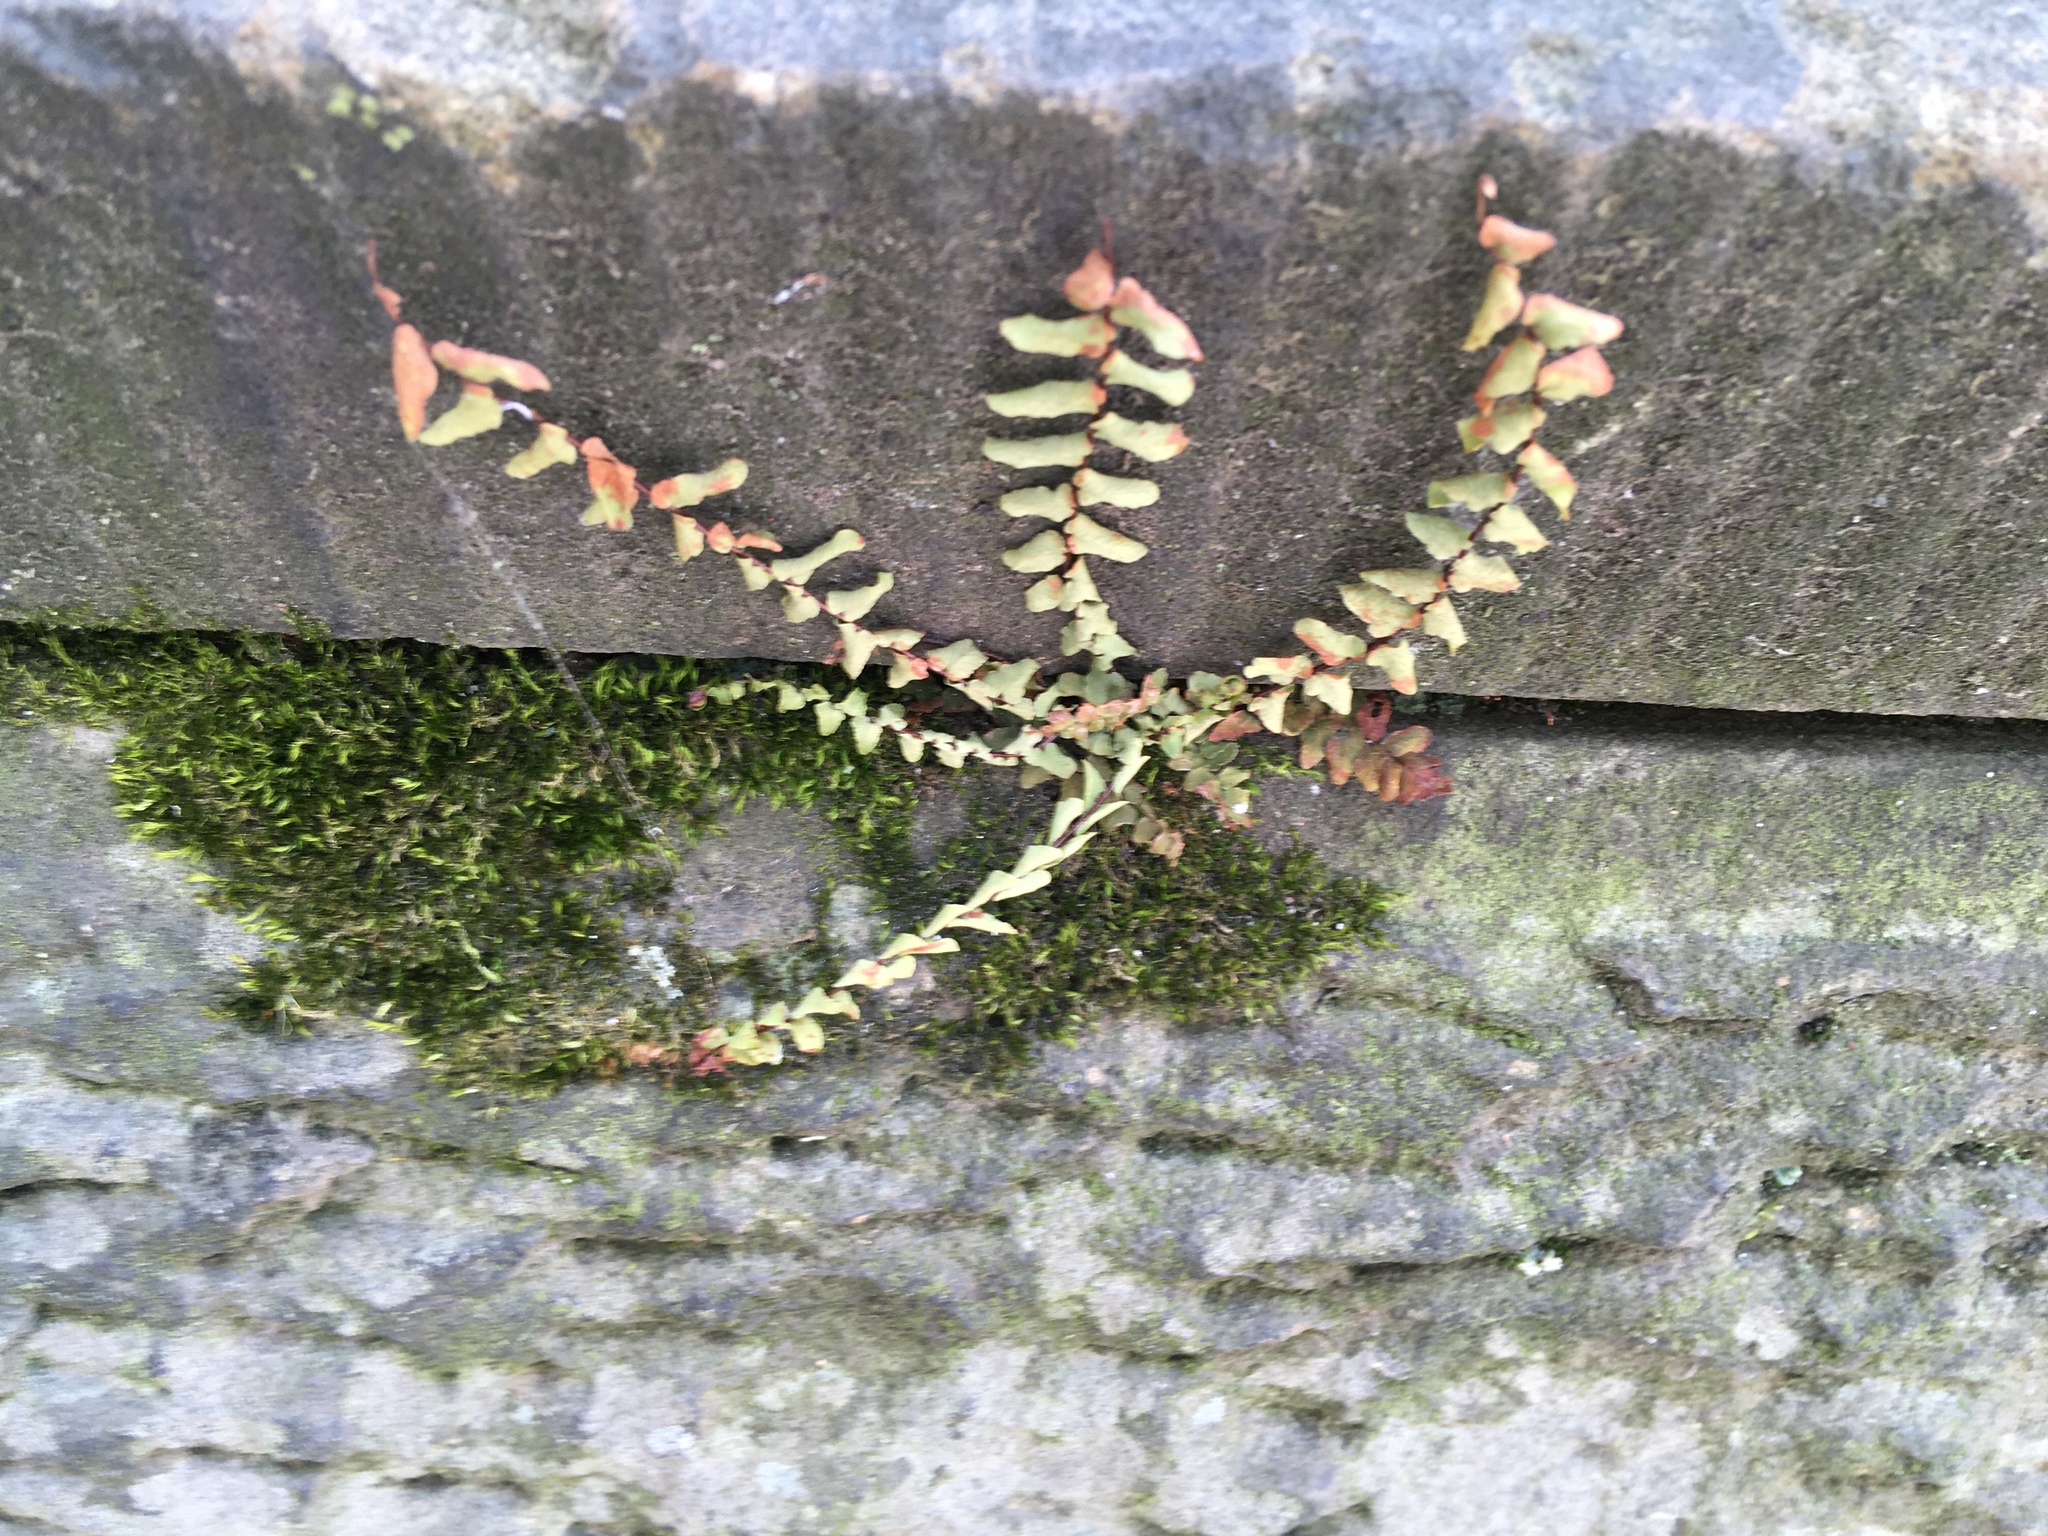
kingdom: Plantae
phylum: Tracheophyta
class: Polypodiopsida
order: Polypodiales
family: Aspleniaceae
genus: Asplenium
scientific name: Asplenium platyneuron
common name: Ebony spleenwort
